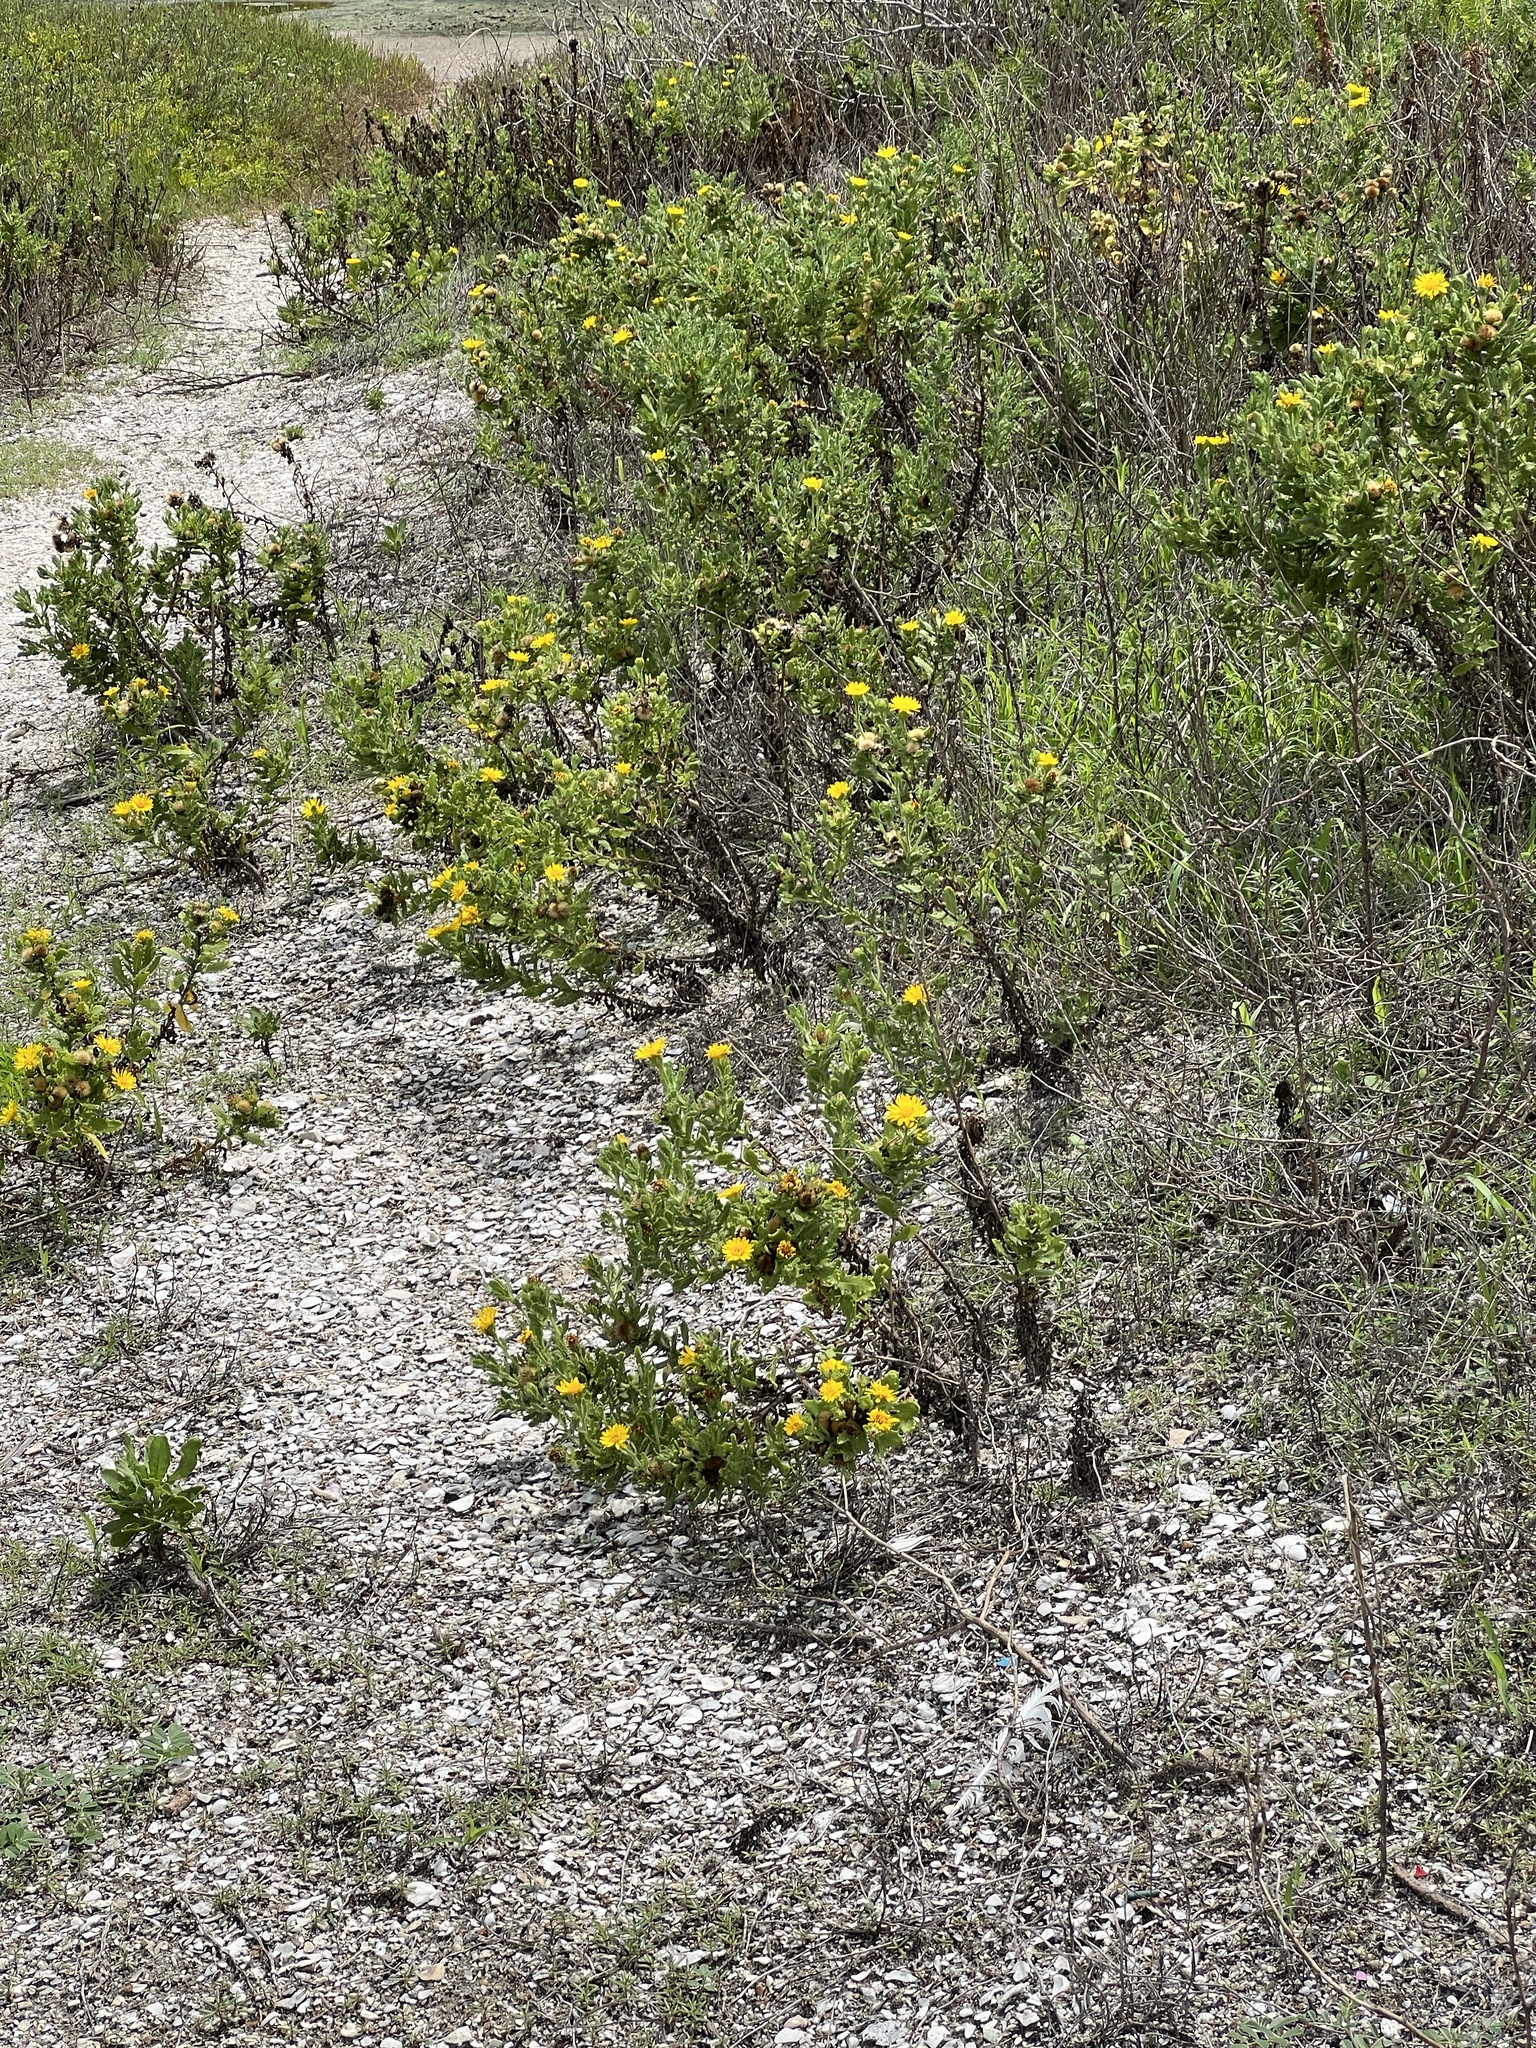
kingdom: Plantae
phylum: Tracheophyta
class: Magnoliopsida
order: Asterales
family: Asteraceae
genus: Rayjacksonia
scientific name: Rayjacksonia phyllocephala
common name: Gulf coast camphor daisy
